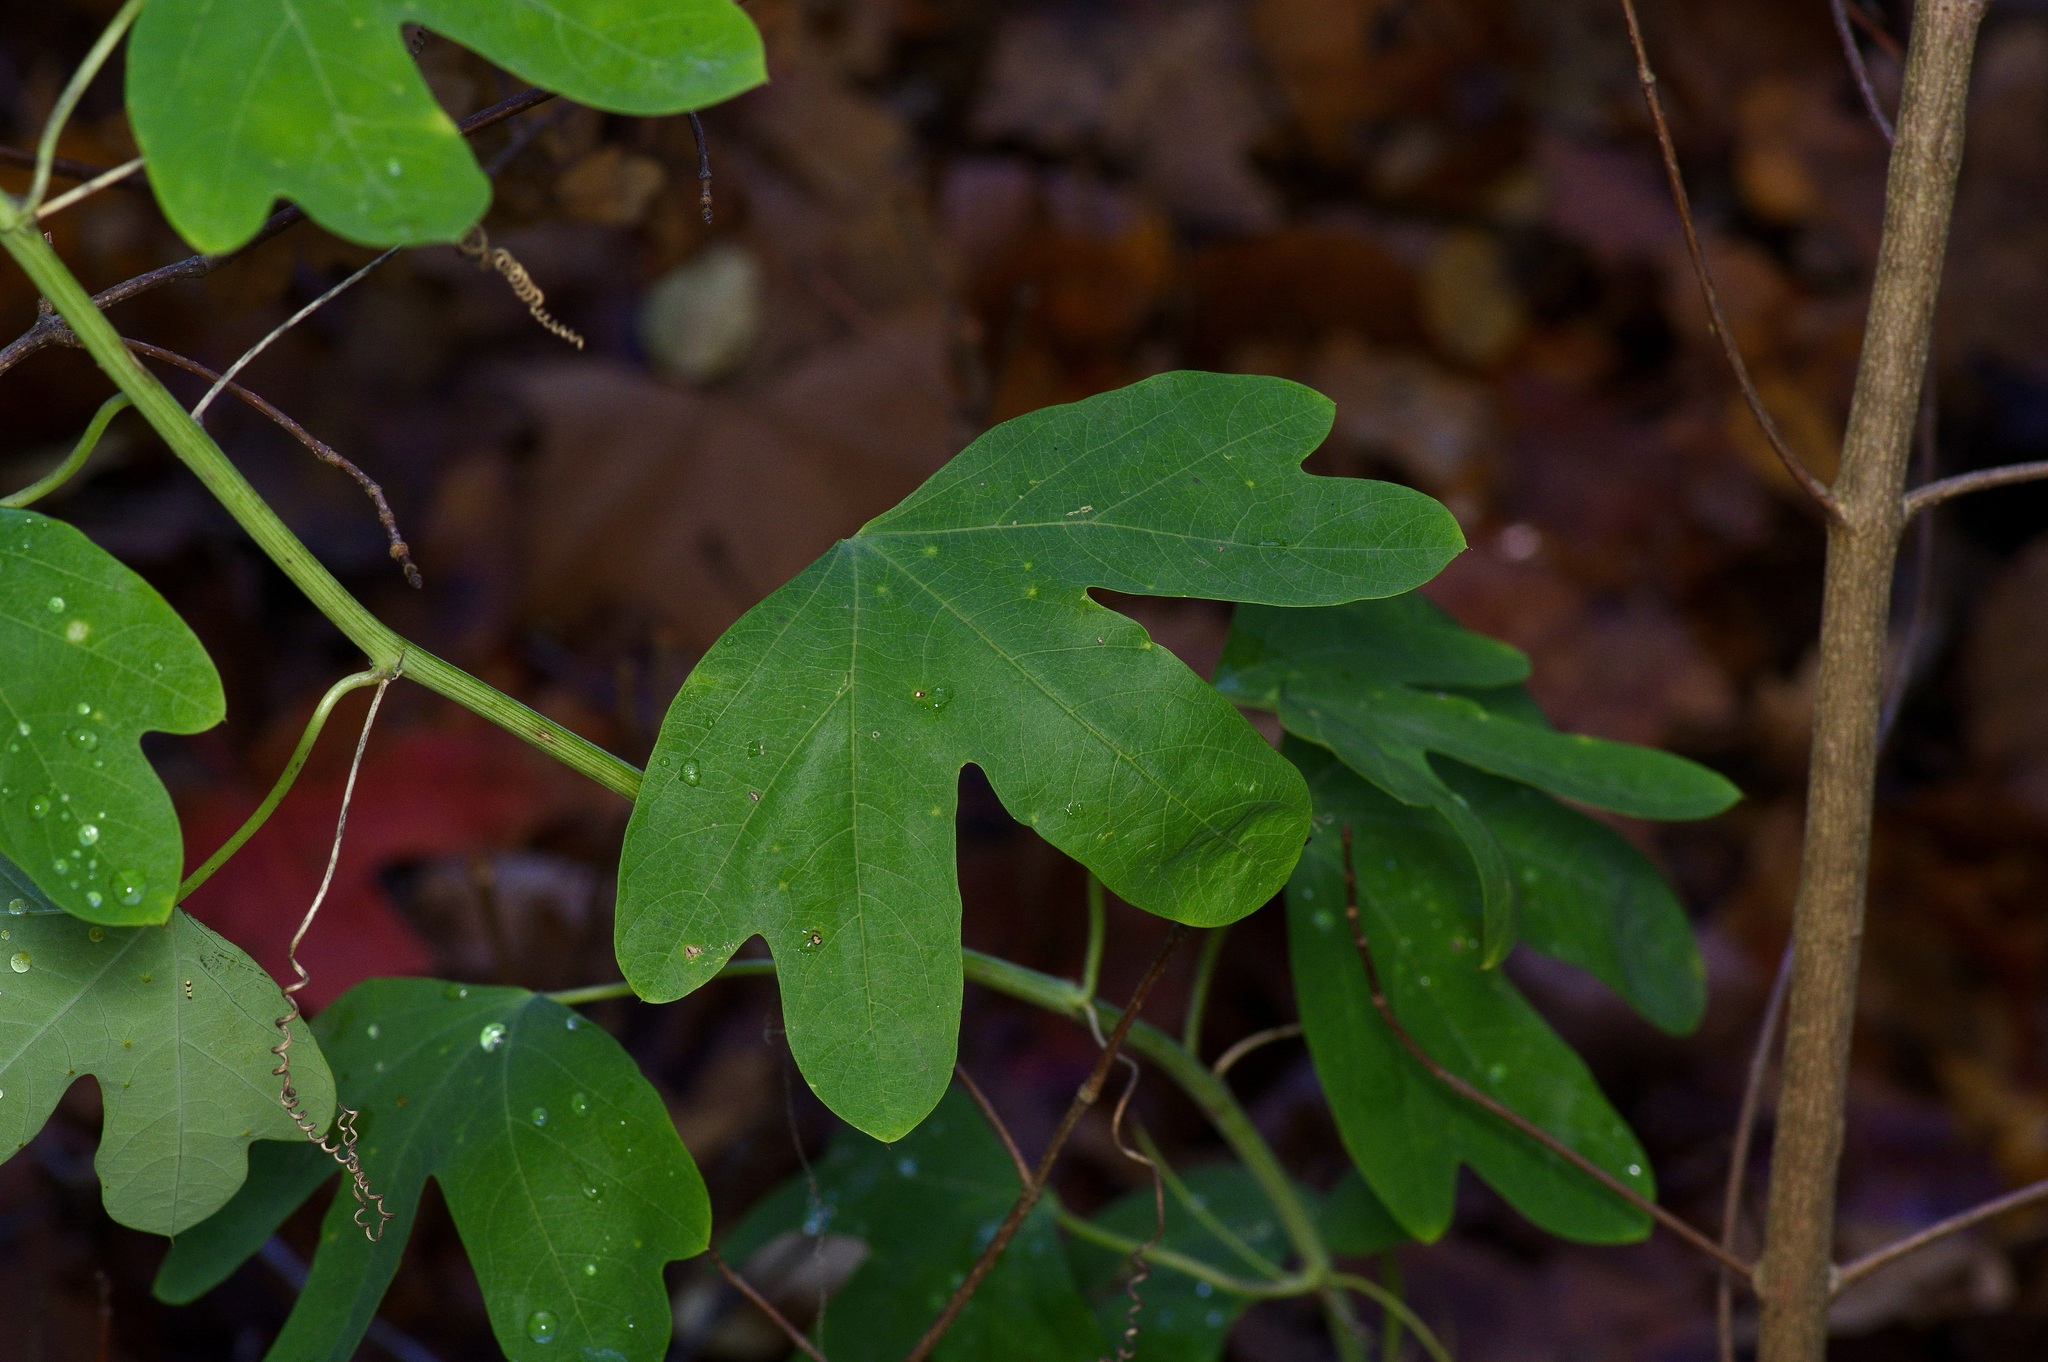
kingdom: Plantae
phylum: Tracheophyta
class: Magnoliopsida
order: Malpighiales
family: Passifloraceae
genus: Passiflora
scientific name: Passiflora affinis
